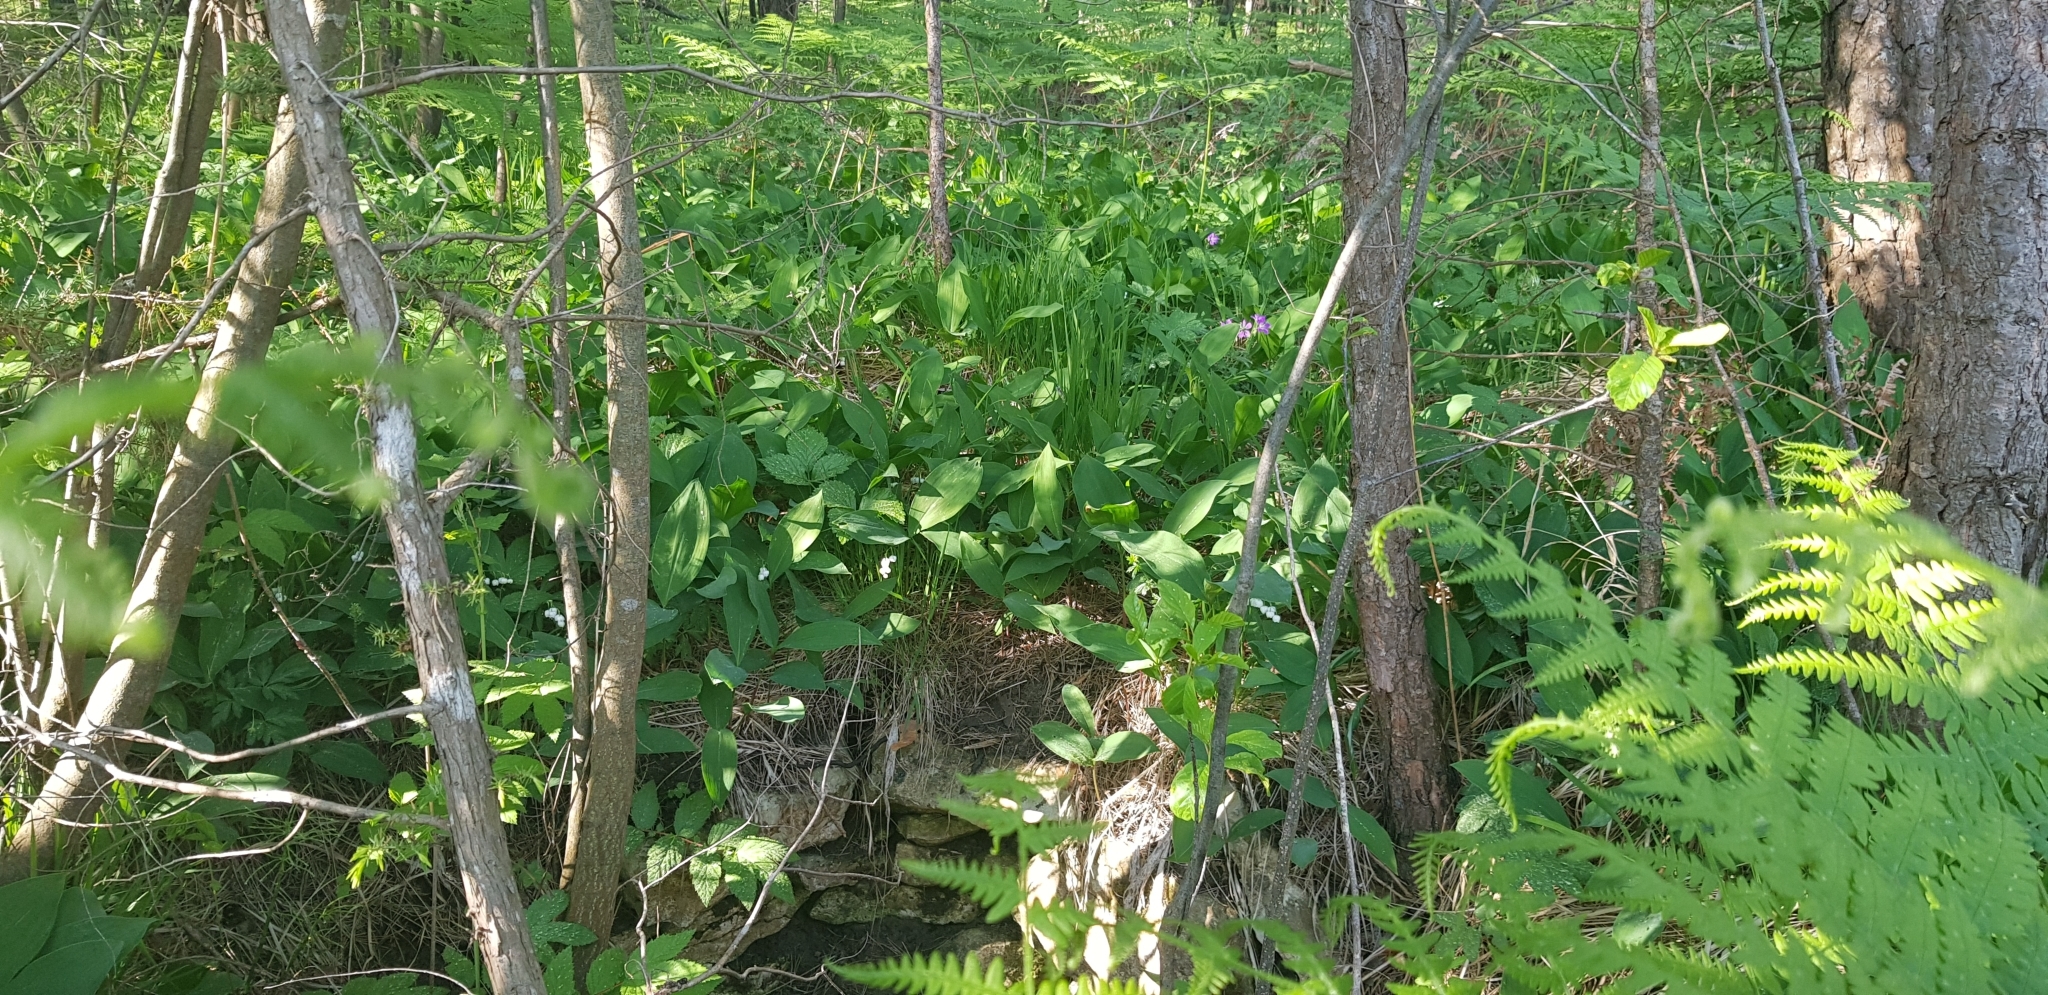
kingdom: Plantae
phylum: Tracheophyta
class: Liliopsida
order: Asparagales
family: Asparagaceae
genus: Convallaria
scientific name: Convallaria majalis
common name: Lily-of-the-valley
